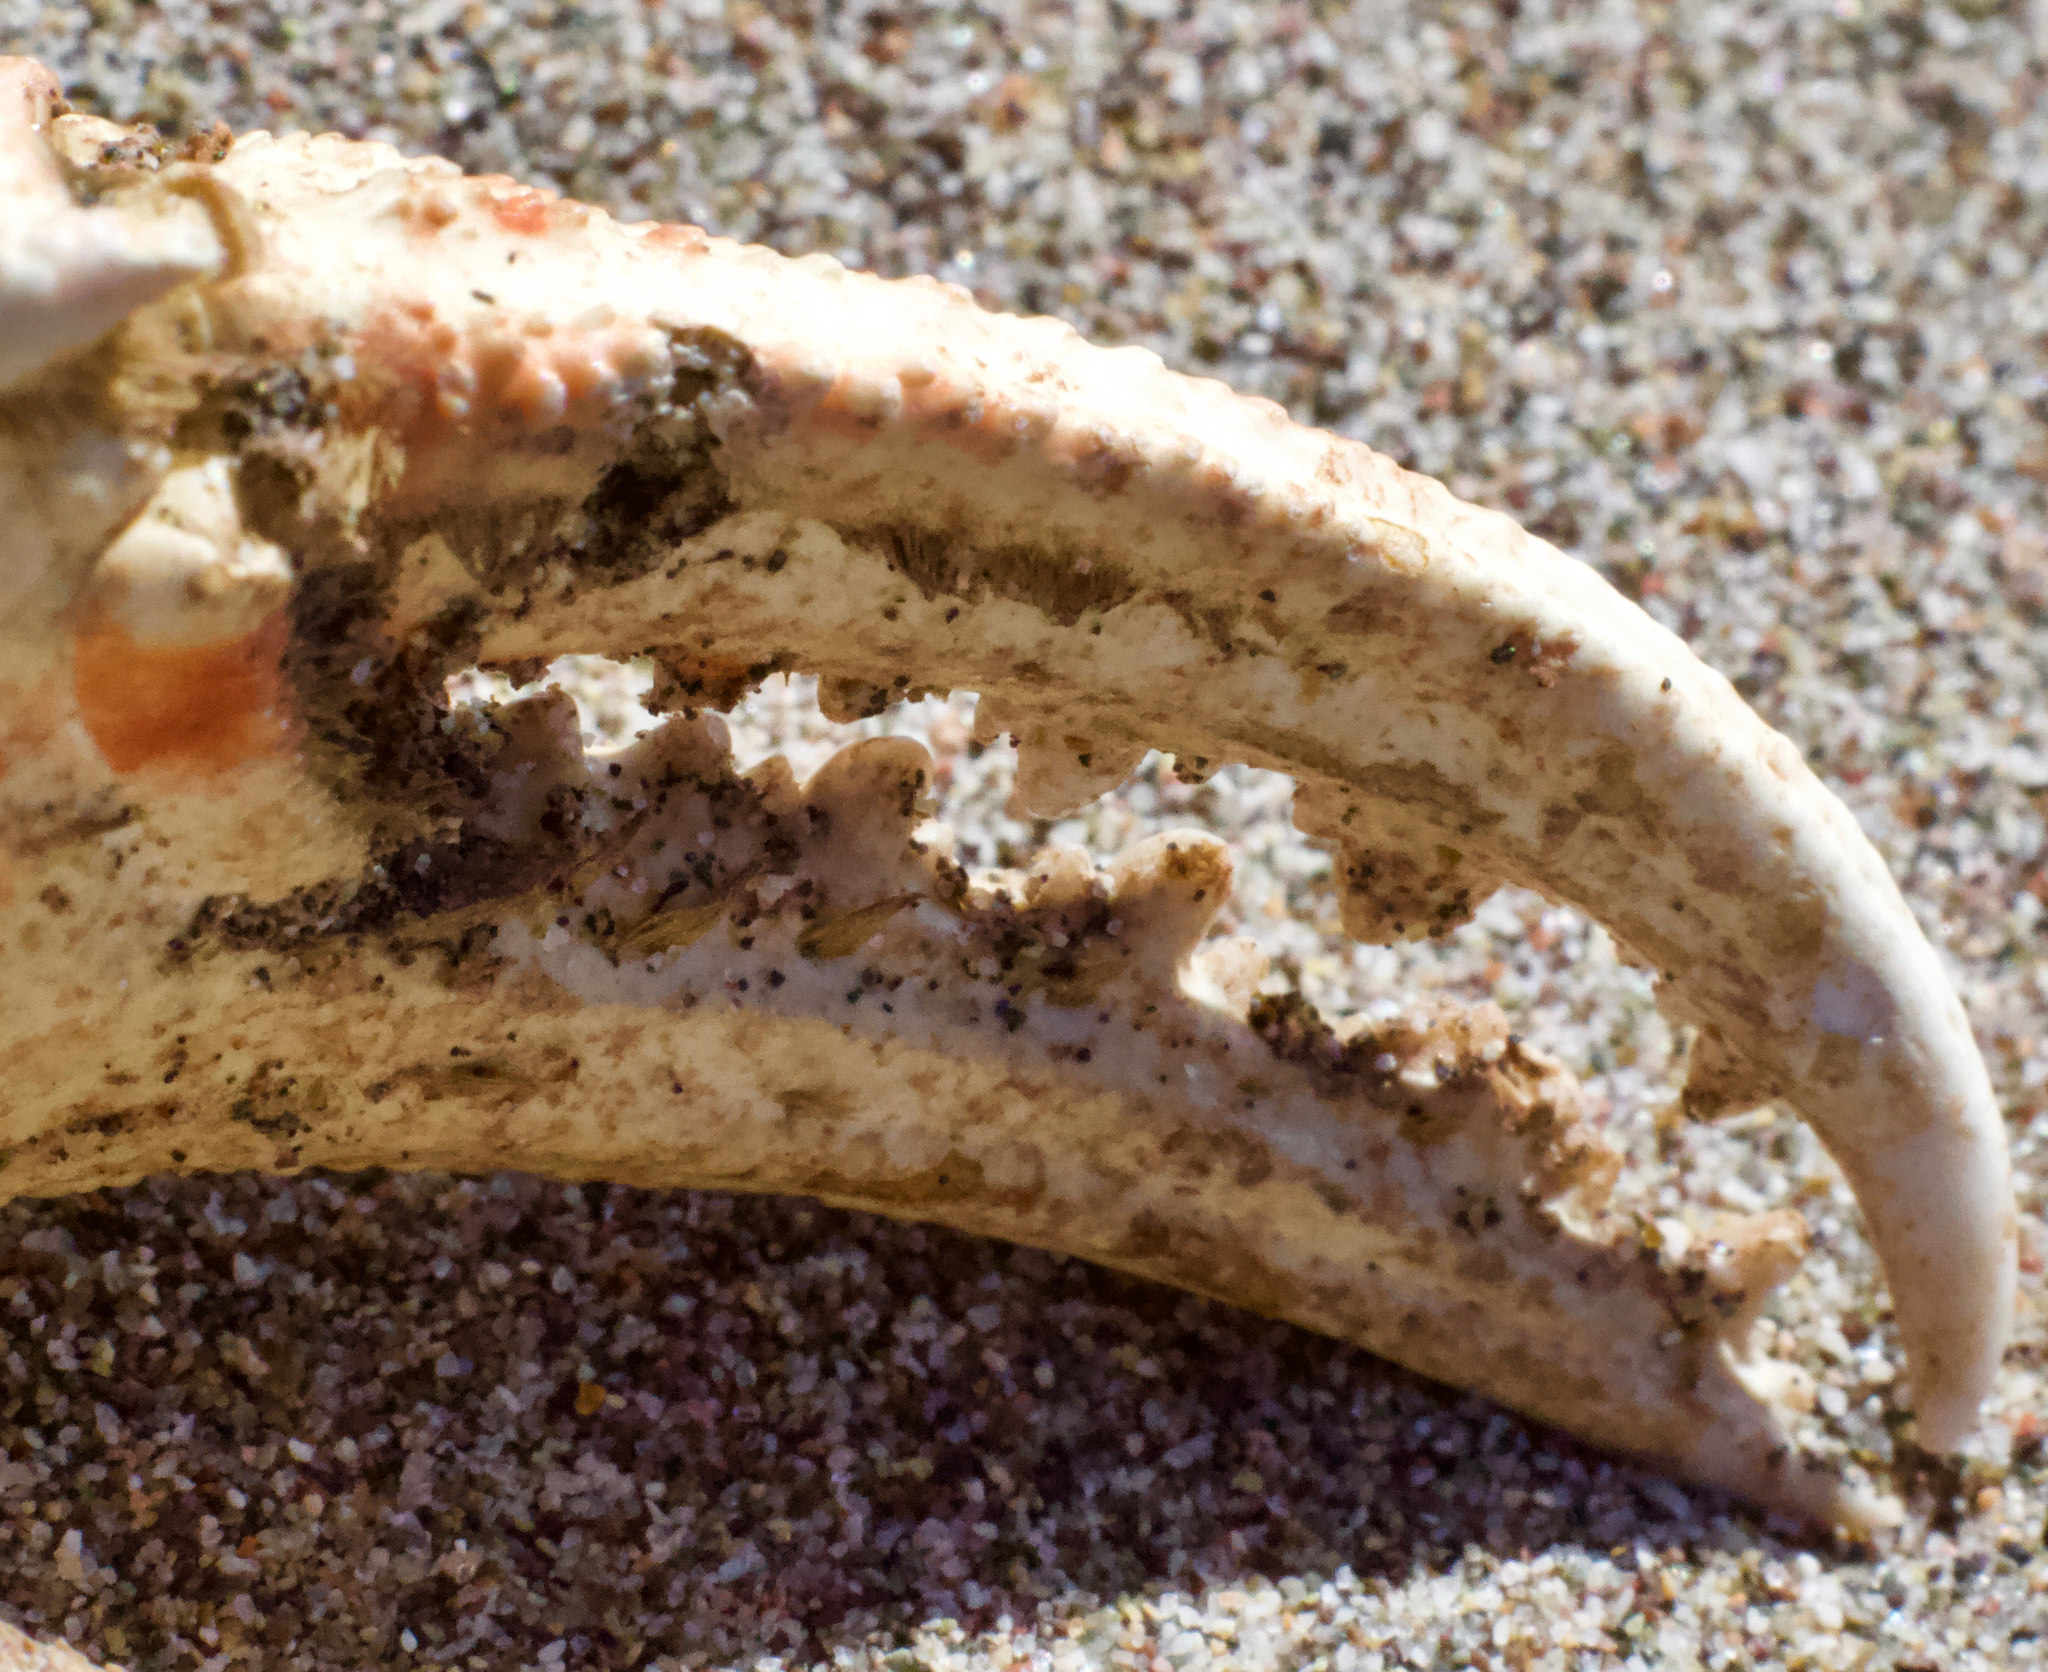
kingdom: Animalia
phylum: Arthropoda
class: Malacostraca
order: Decapoda
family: Ovalipidae
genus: Ovalipes
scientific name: Ovalipes trimaculatus
